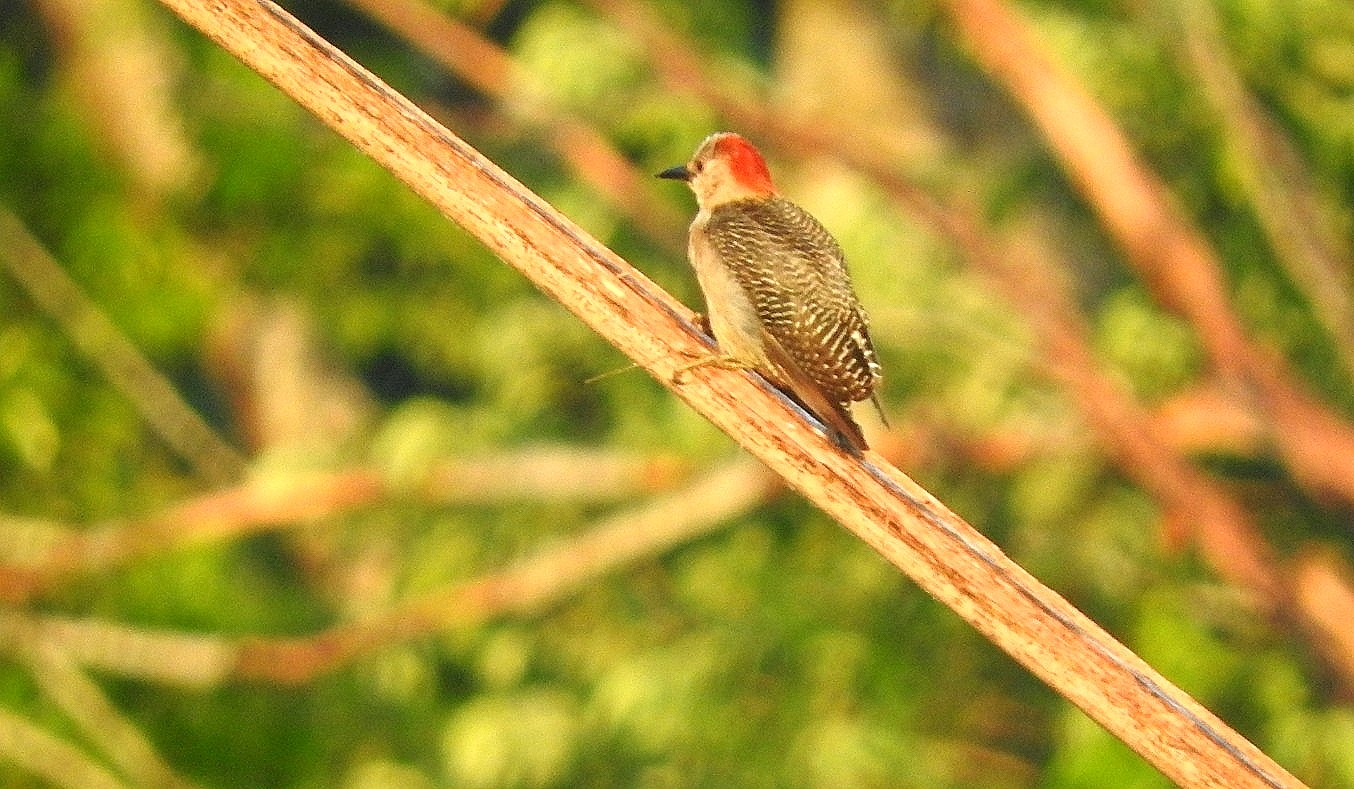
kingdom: Animalia
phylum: Chordata
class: Aves
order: Piciformes
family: Picidae
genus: Melanerpes
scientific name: Melanerpes aurifrons
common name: Golden-fronted woodpecker
